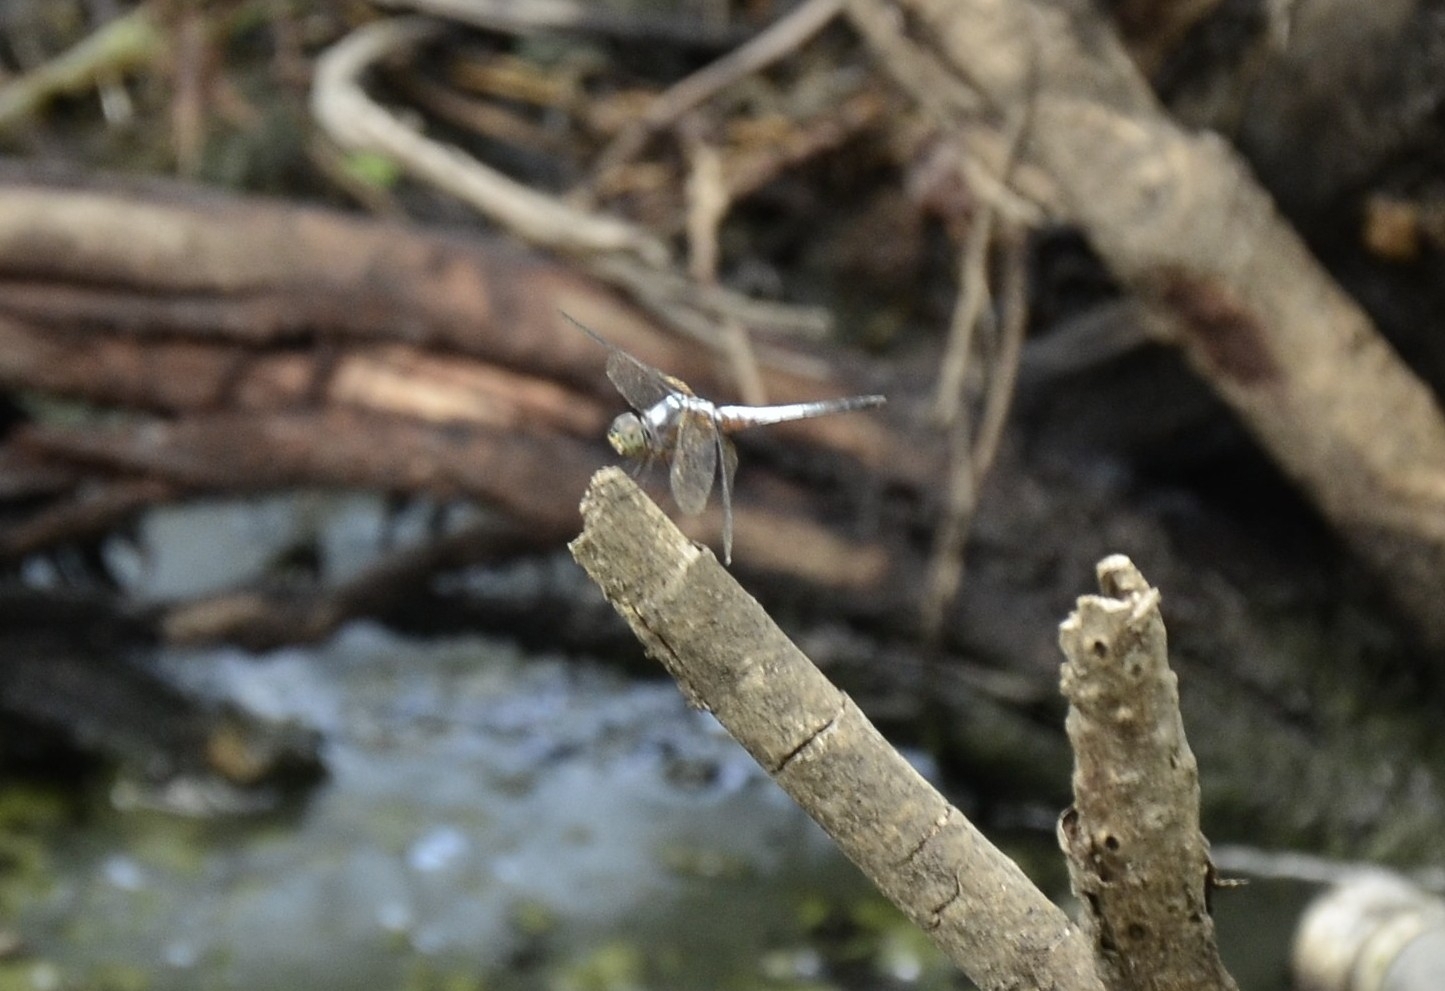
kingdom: Animalia
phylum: Arthropoda
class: Insecta
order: Odonata
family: Libellulidae
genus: Brachydiplax
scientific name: Brachydiplax chalybea
